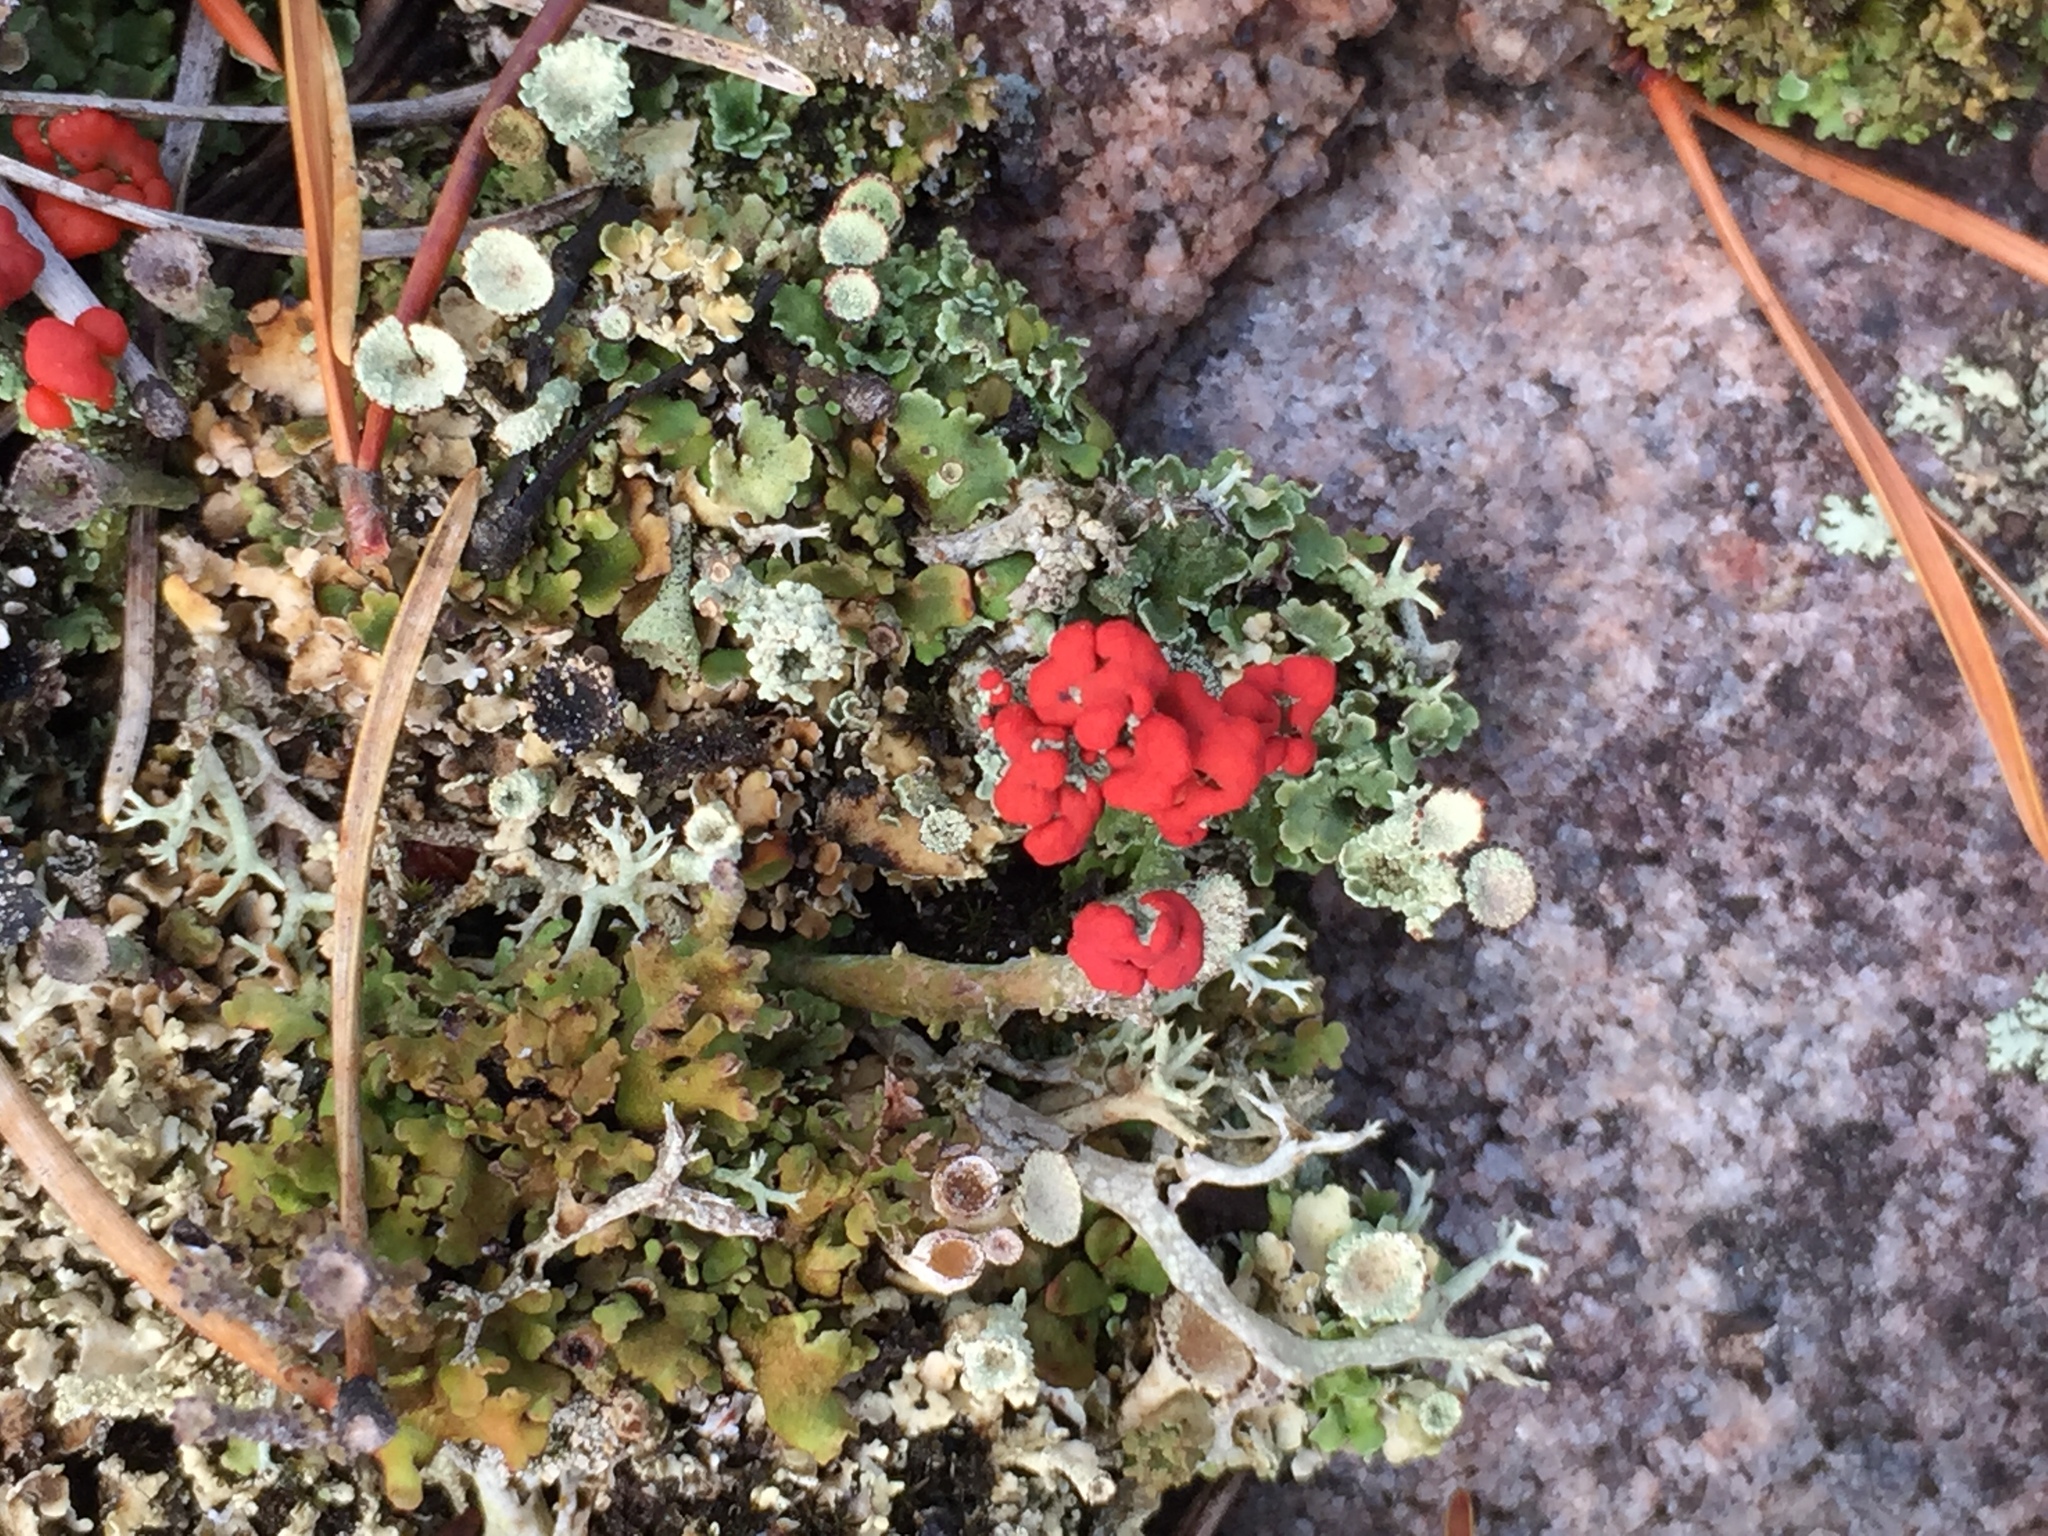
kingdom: Fungi
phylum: Ascomycota
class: Lecanoromycetes
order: Lecanorales
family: Cladoniaceae
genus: Cladonia
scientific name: Cladonia cristatella
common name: British soldier lichen
